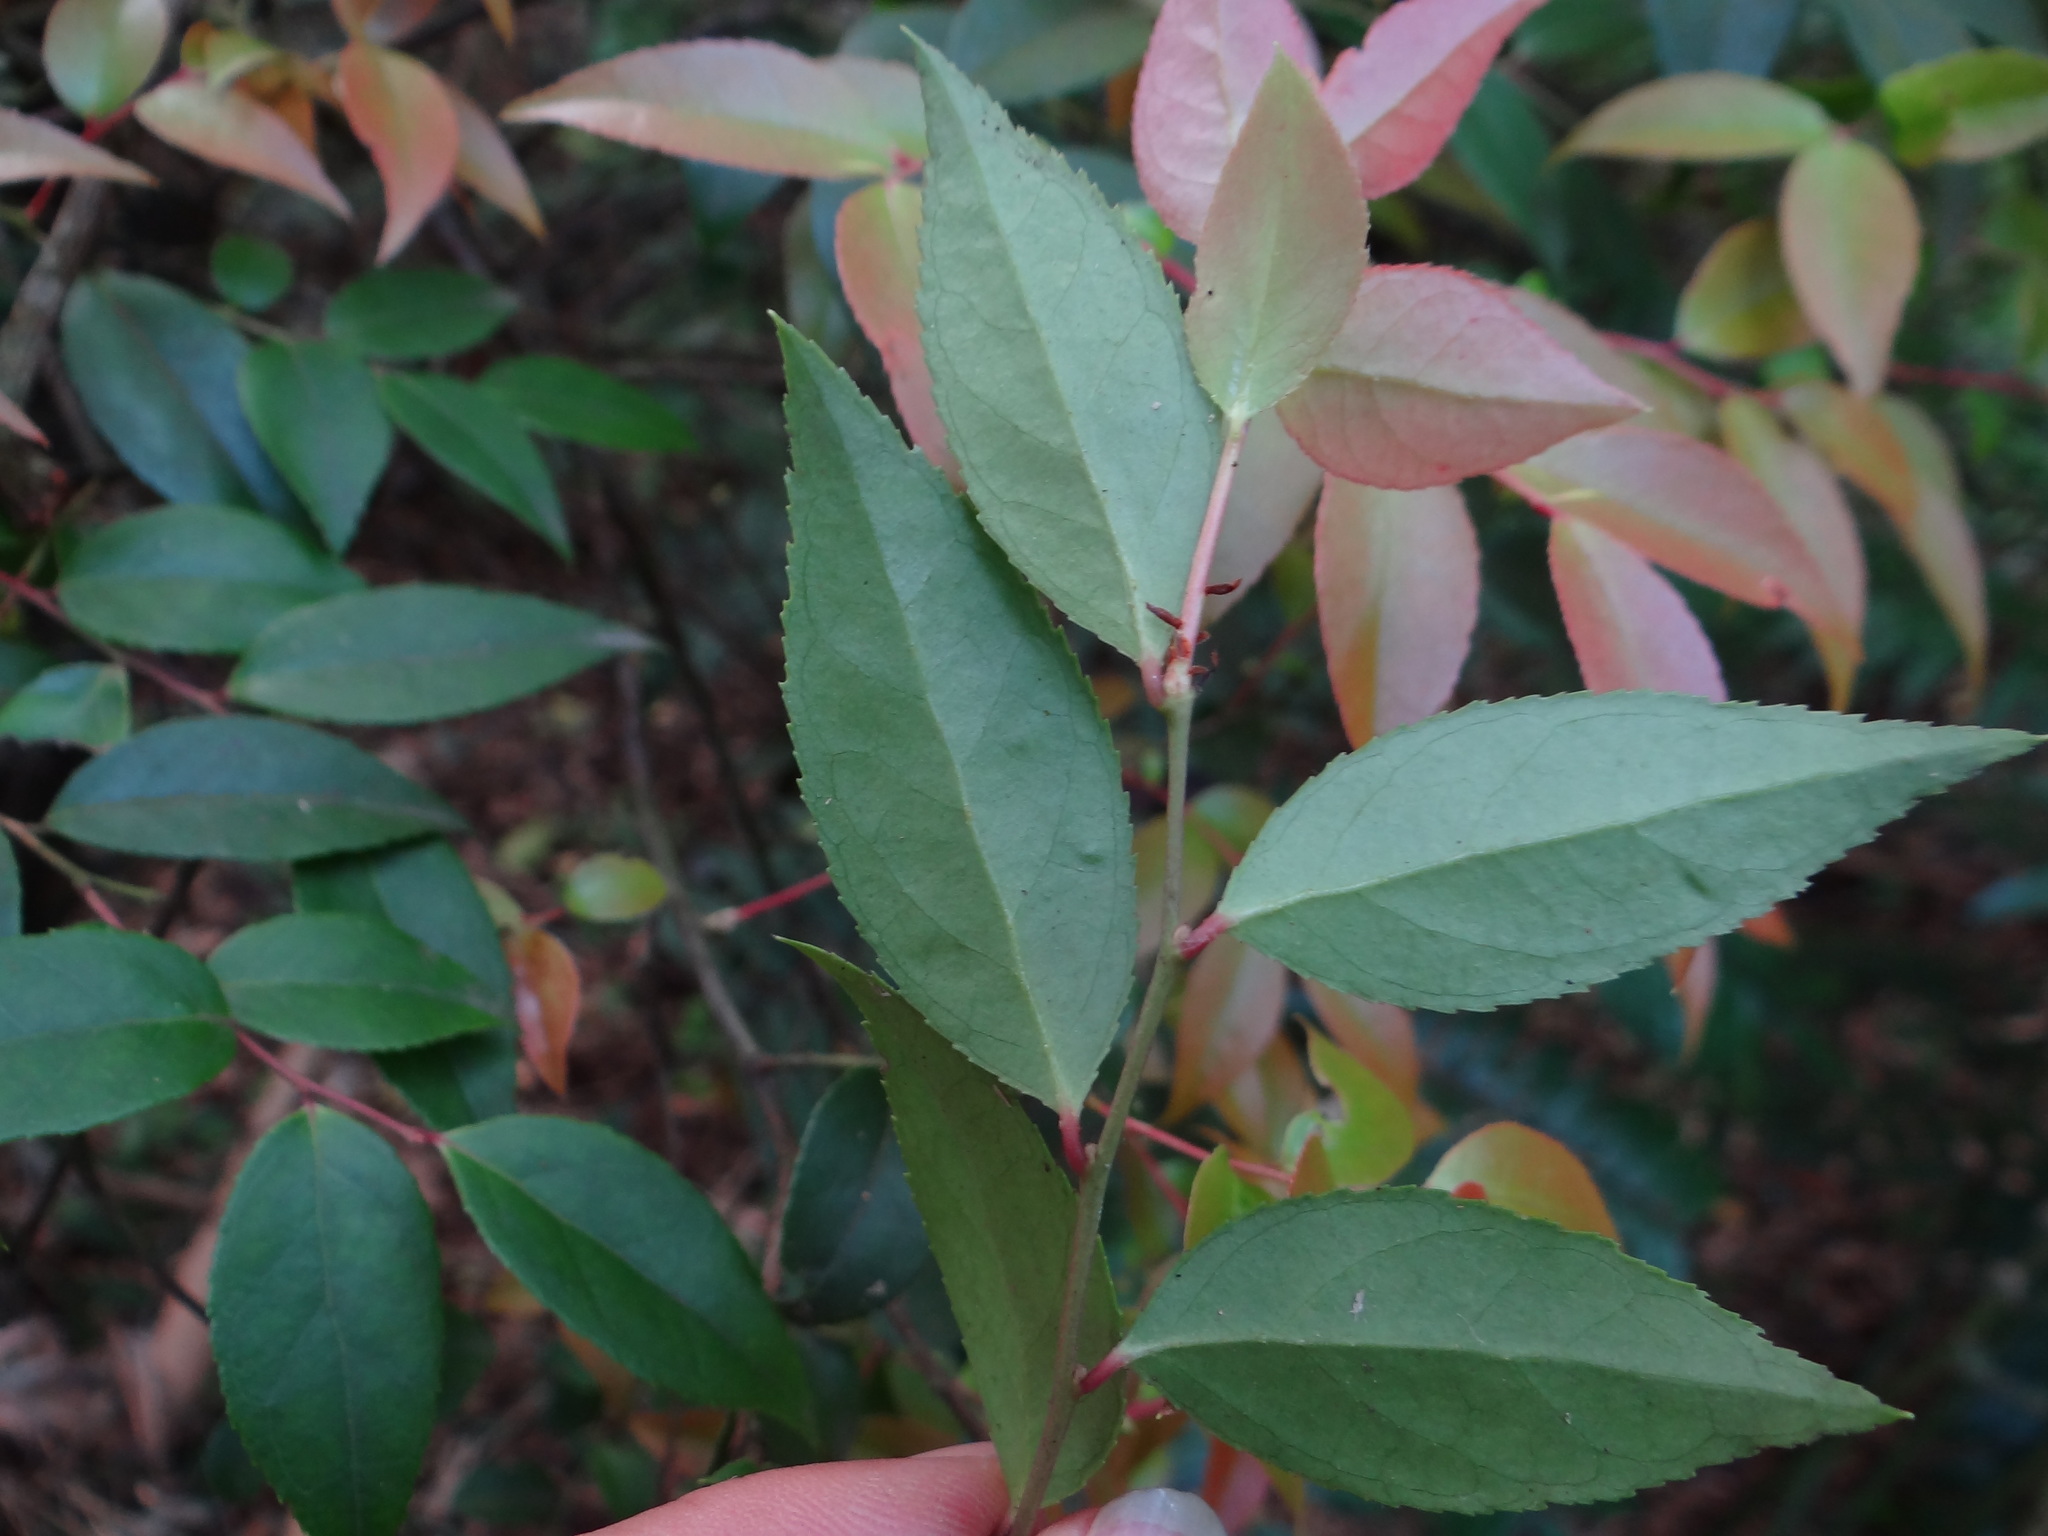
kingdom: Plantae
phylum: Tracheophyta
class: Magnoliopsida
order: Ericales
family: Ericaceae
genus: Vaccinium
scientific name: Vaccinium bracteatum
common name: Sea bilberry
